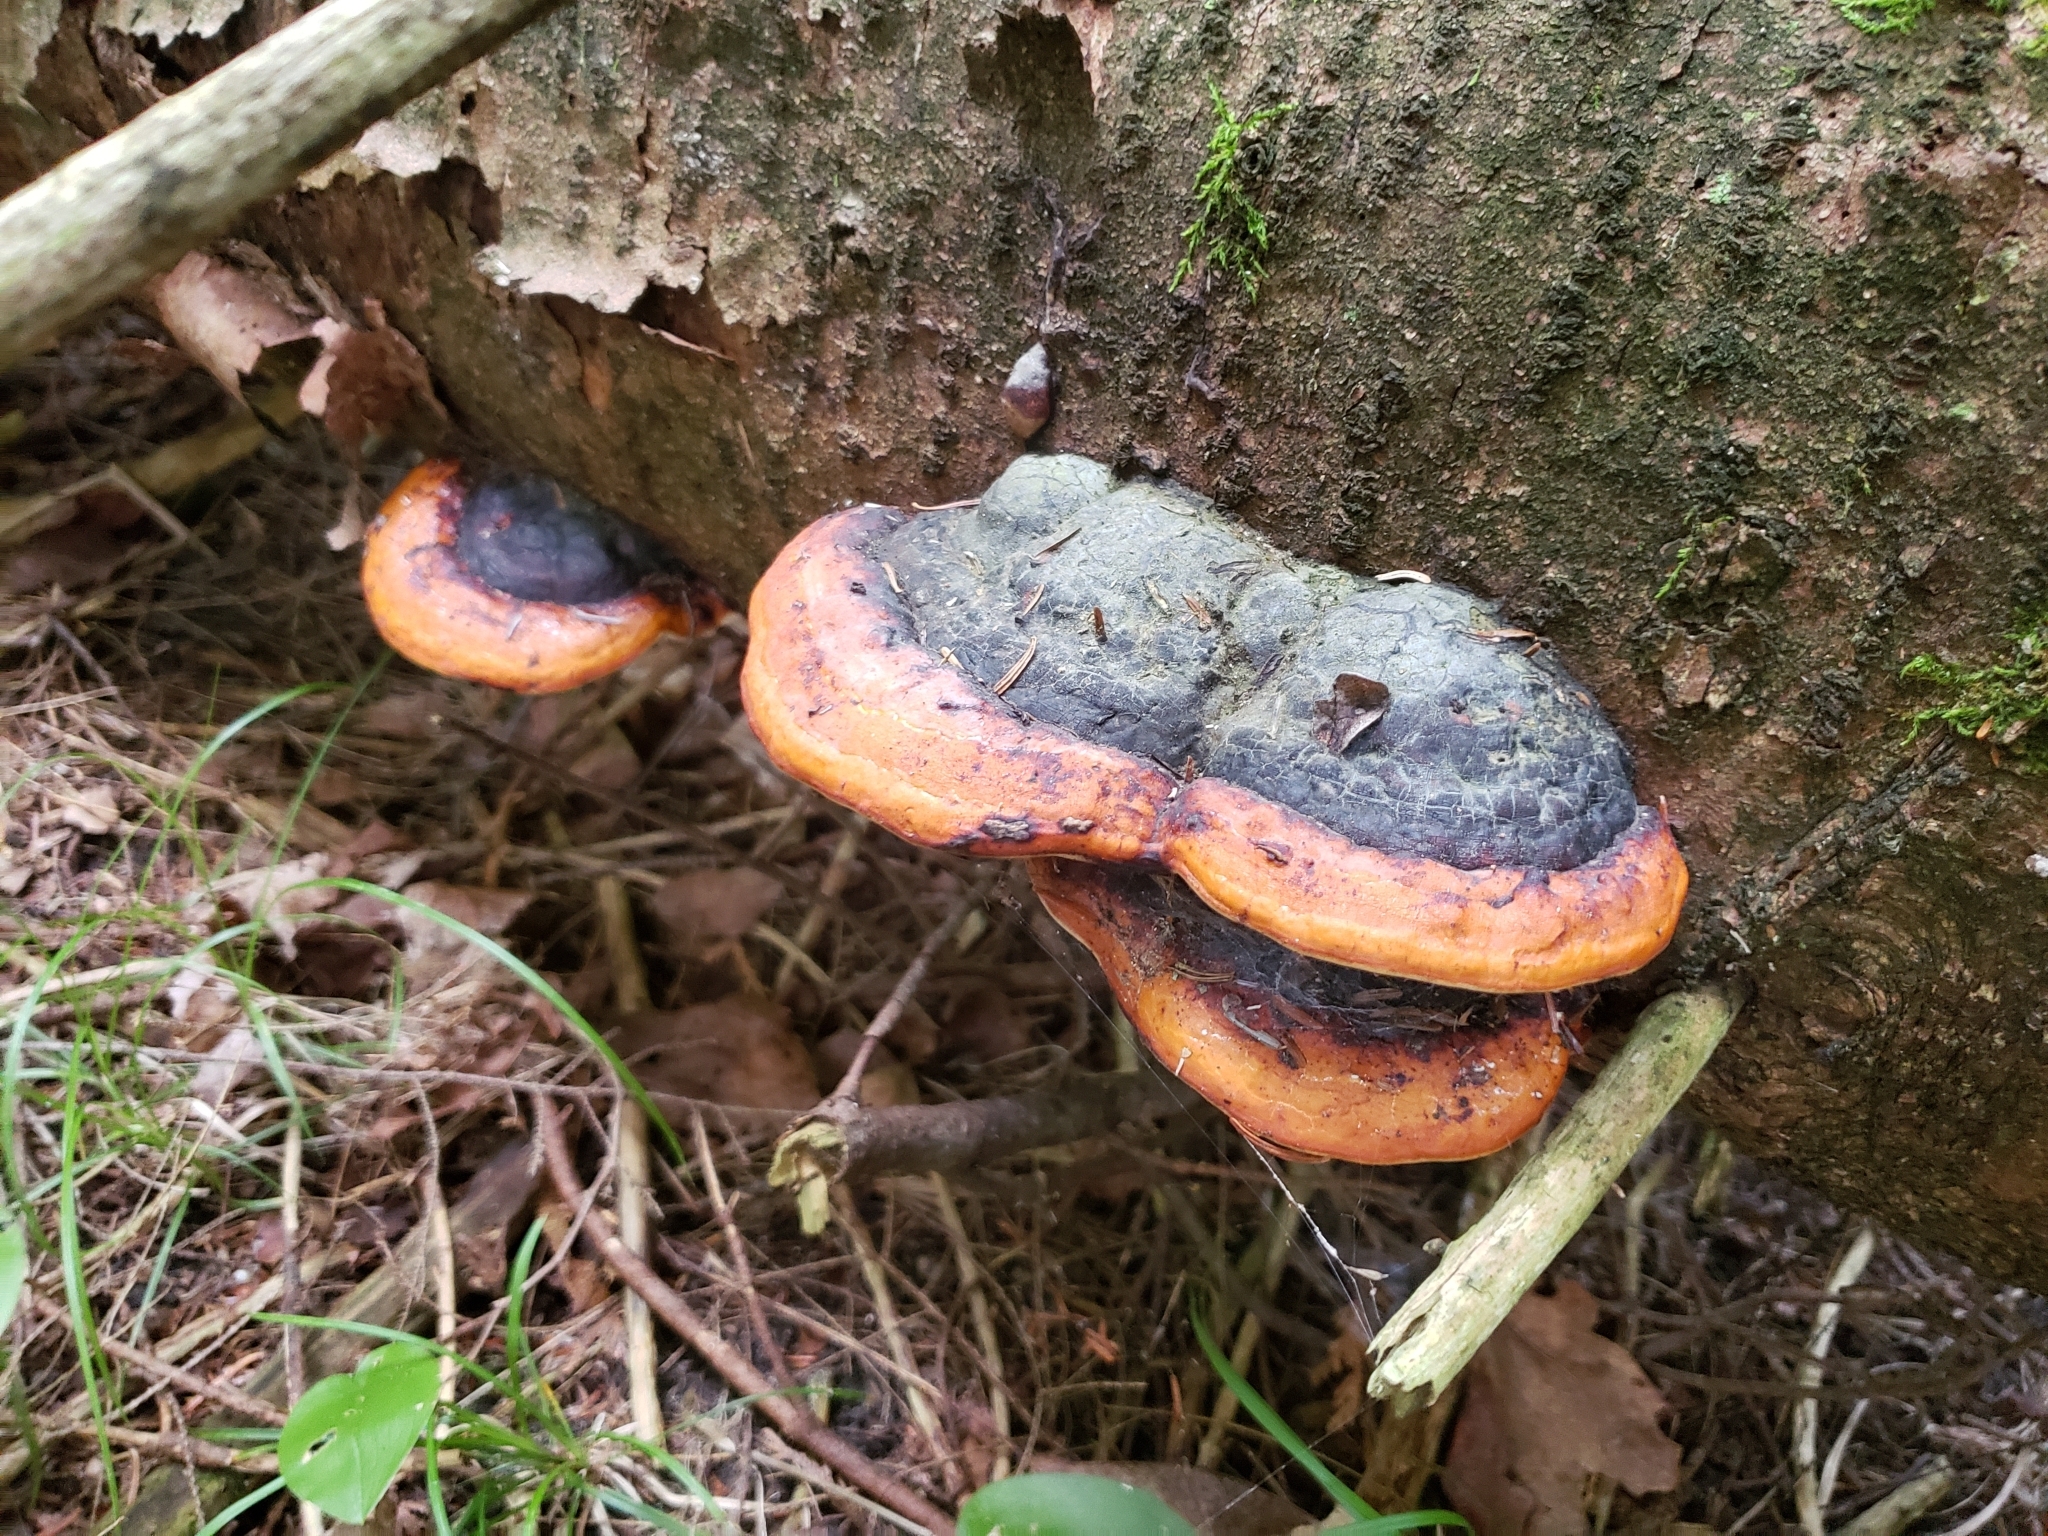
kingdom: Fungi
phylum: Basidiomycota
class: Agaricomycetes
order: Polyporales
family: Fomitopsidaceae
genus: Fomitopsis
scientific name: Fomitopsis mounceae
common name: Northern red belt
